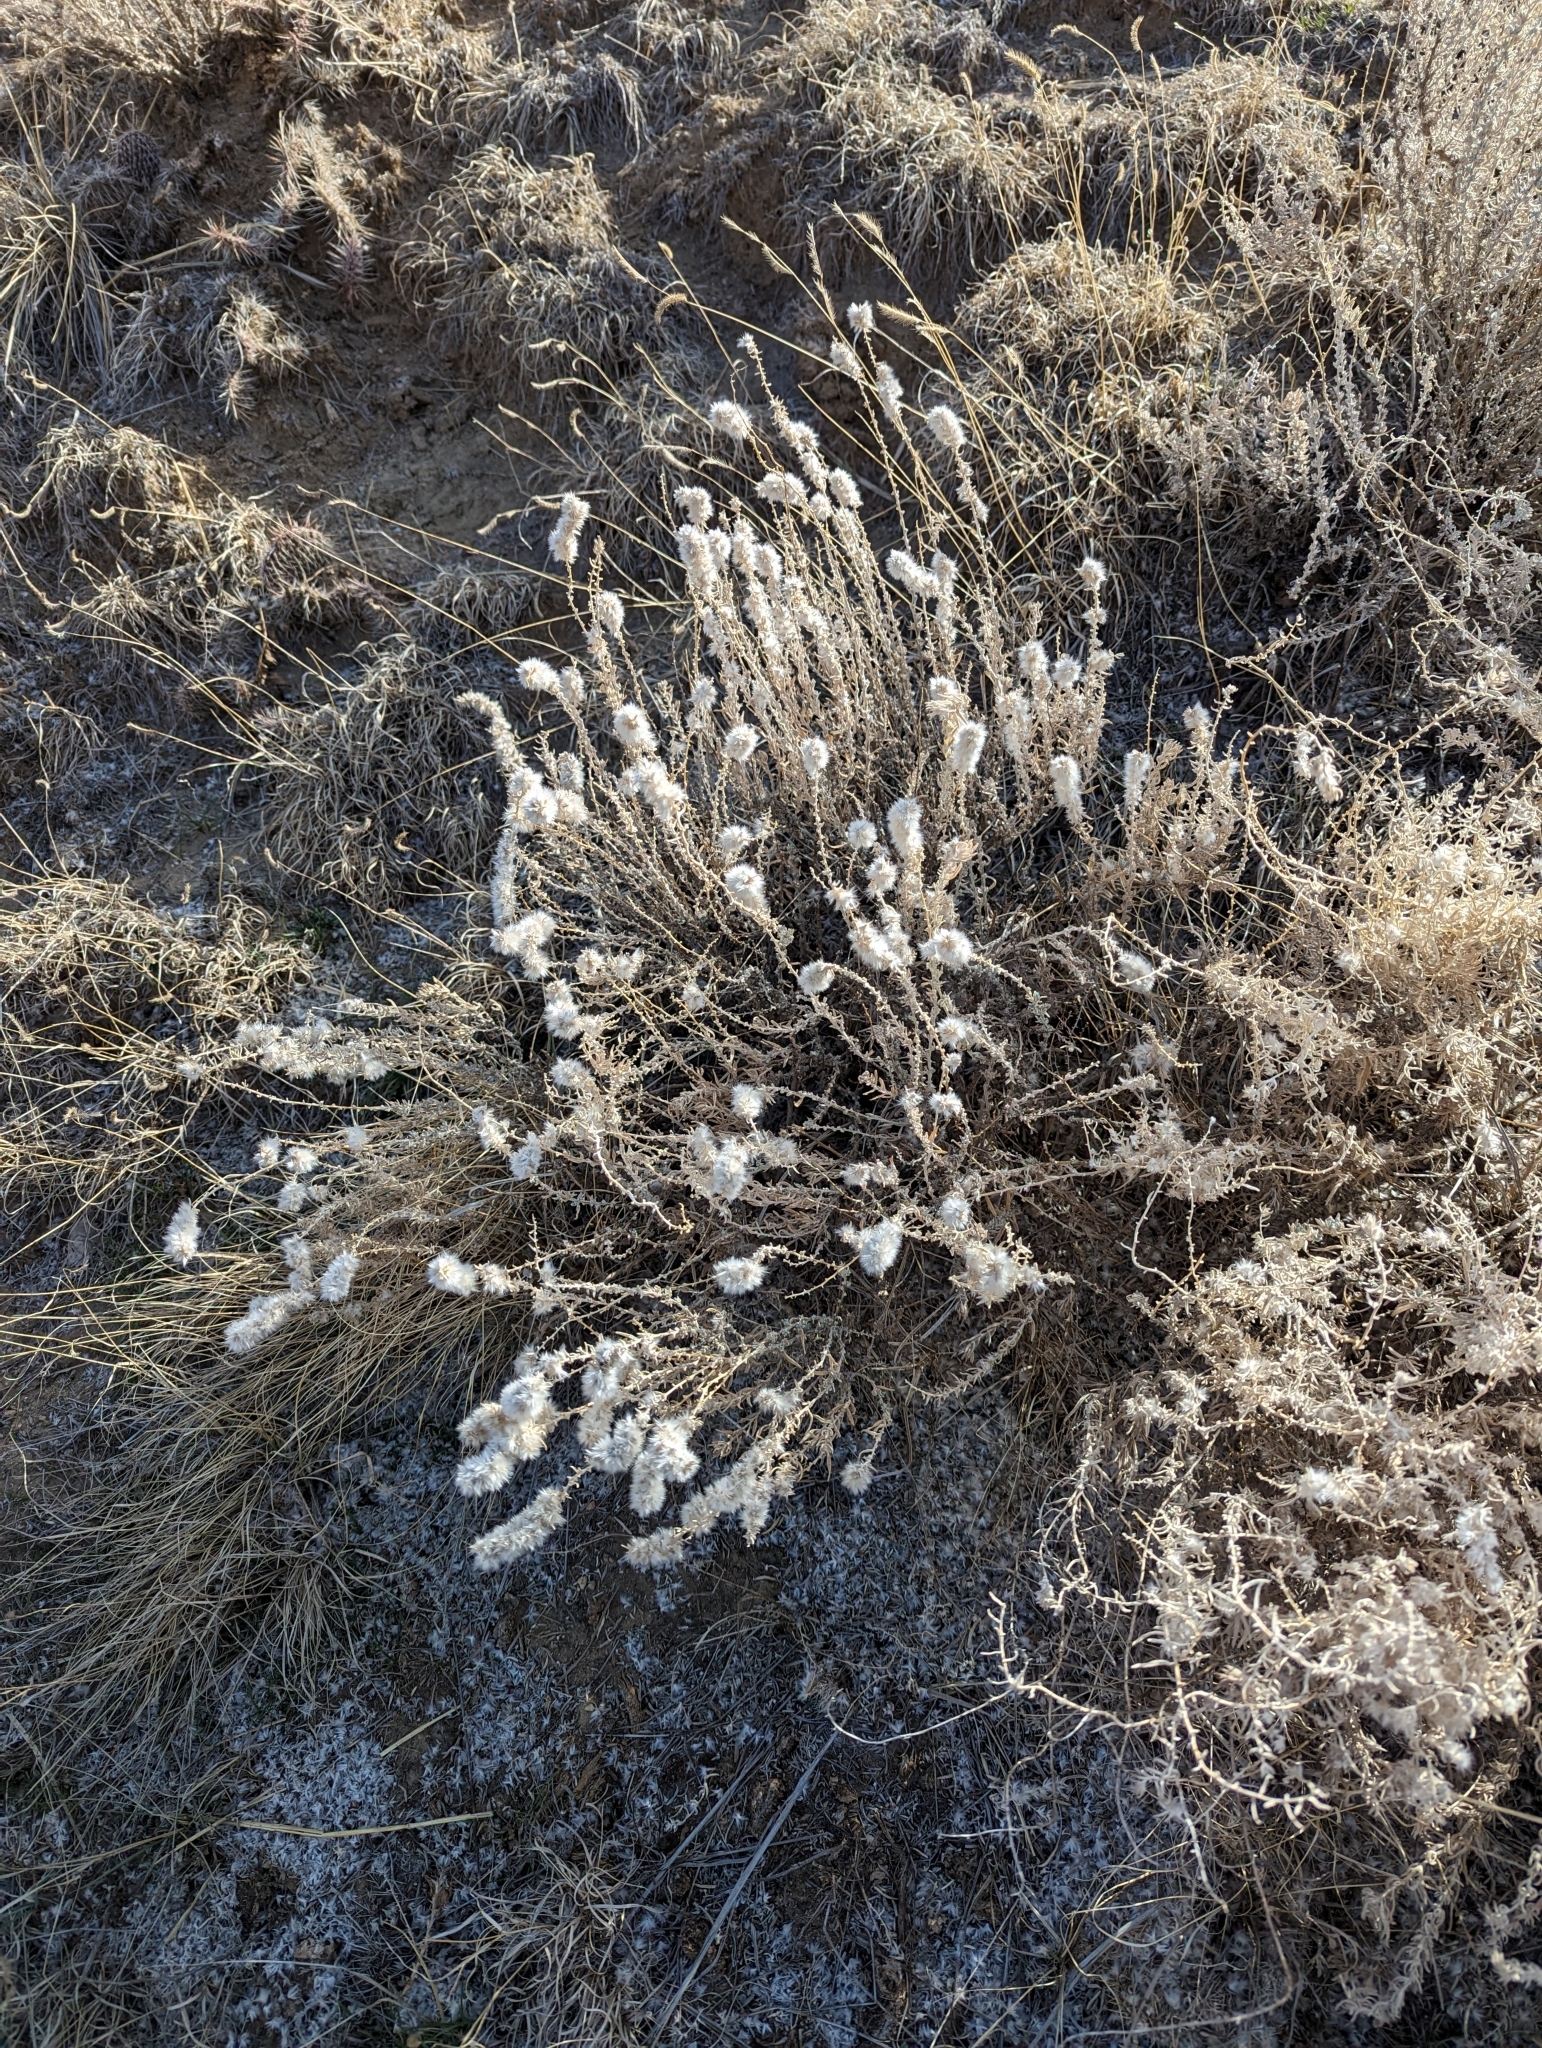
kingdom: Plantae
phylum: Tracheophyta
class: Magnoliopsida
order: Caryophyllales
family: Amaranthaceae
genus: Krascheninnikovia
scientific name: Krascheninnikovia lanata
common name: Winterfat
